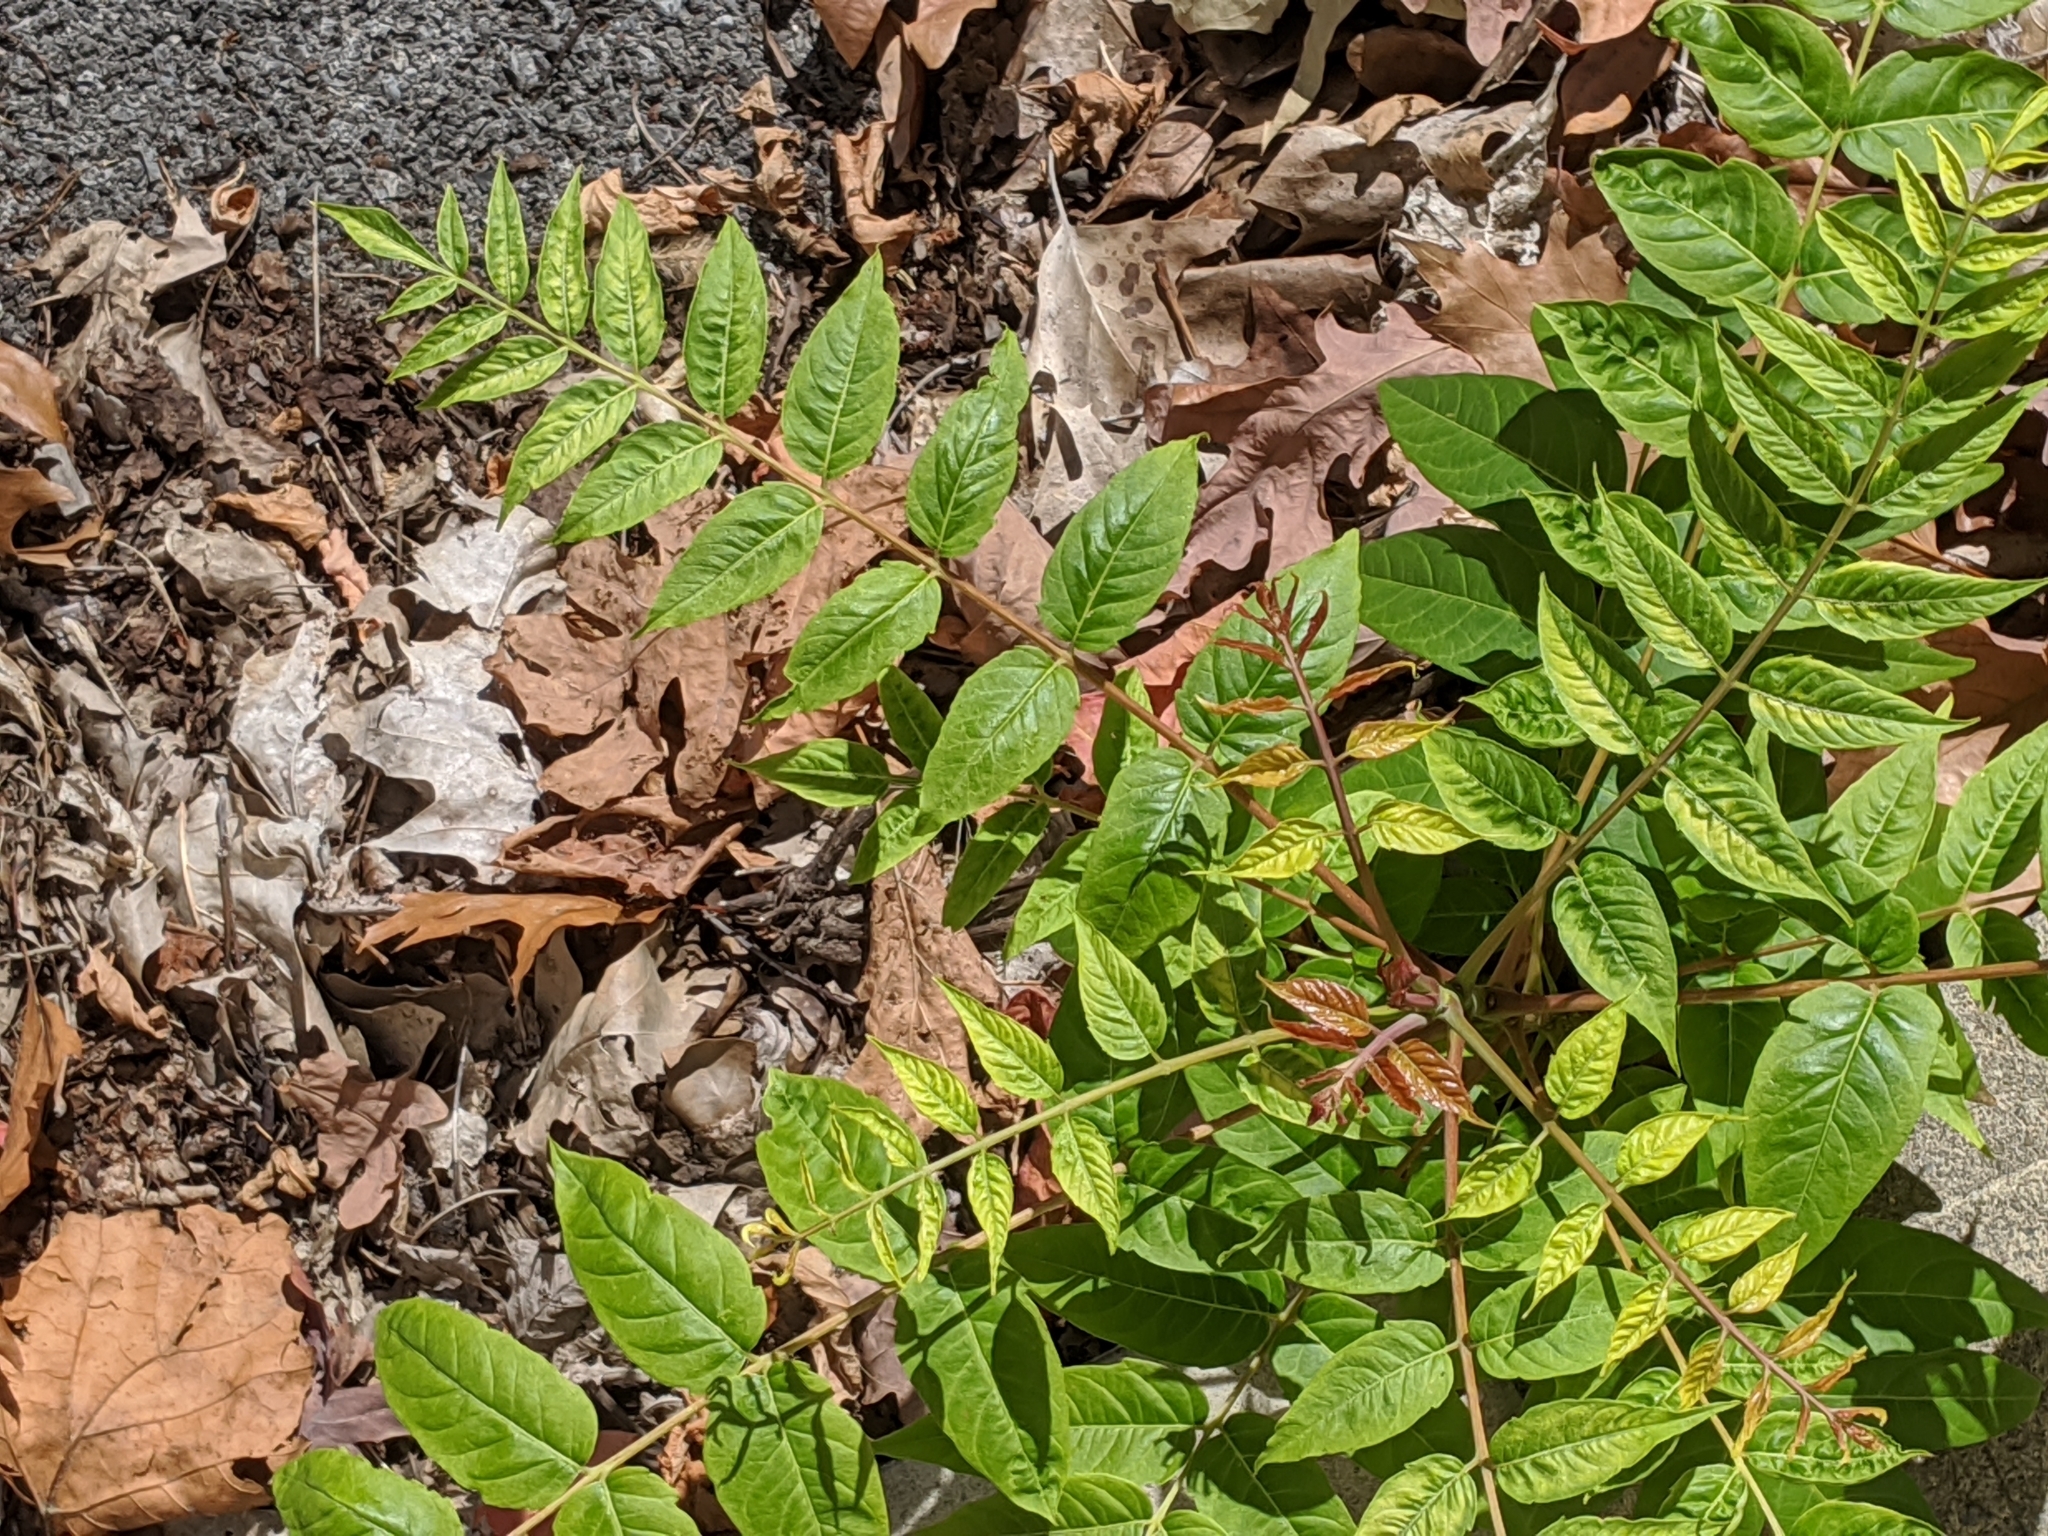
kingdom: Plantae
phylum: Tracheophyta
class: Magnoliopsida
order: Sapindales
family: Simaroubaceae
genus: Ailanthus
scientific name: Ailanthus altissima
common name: Tree-of-heaven
